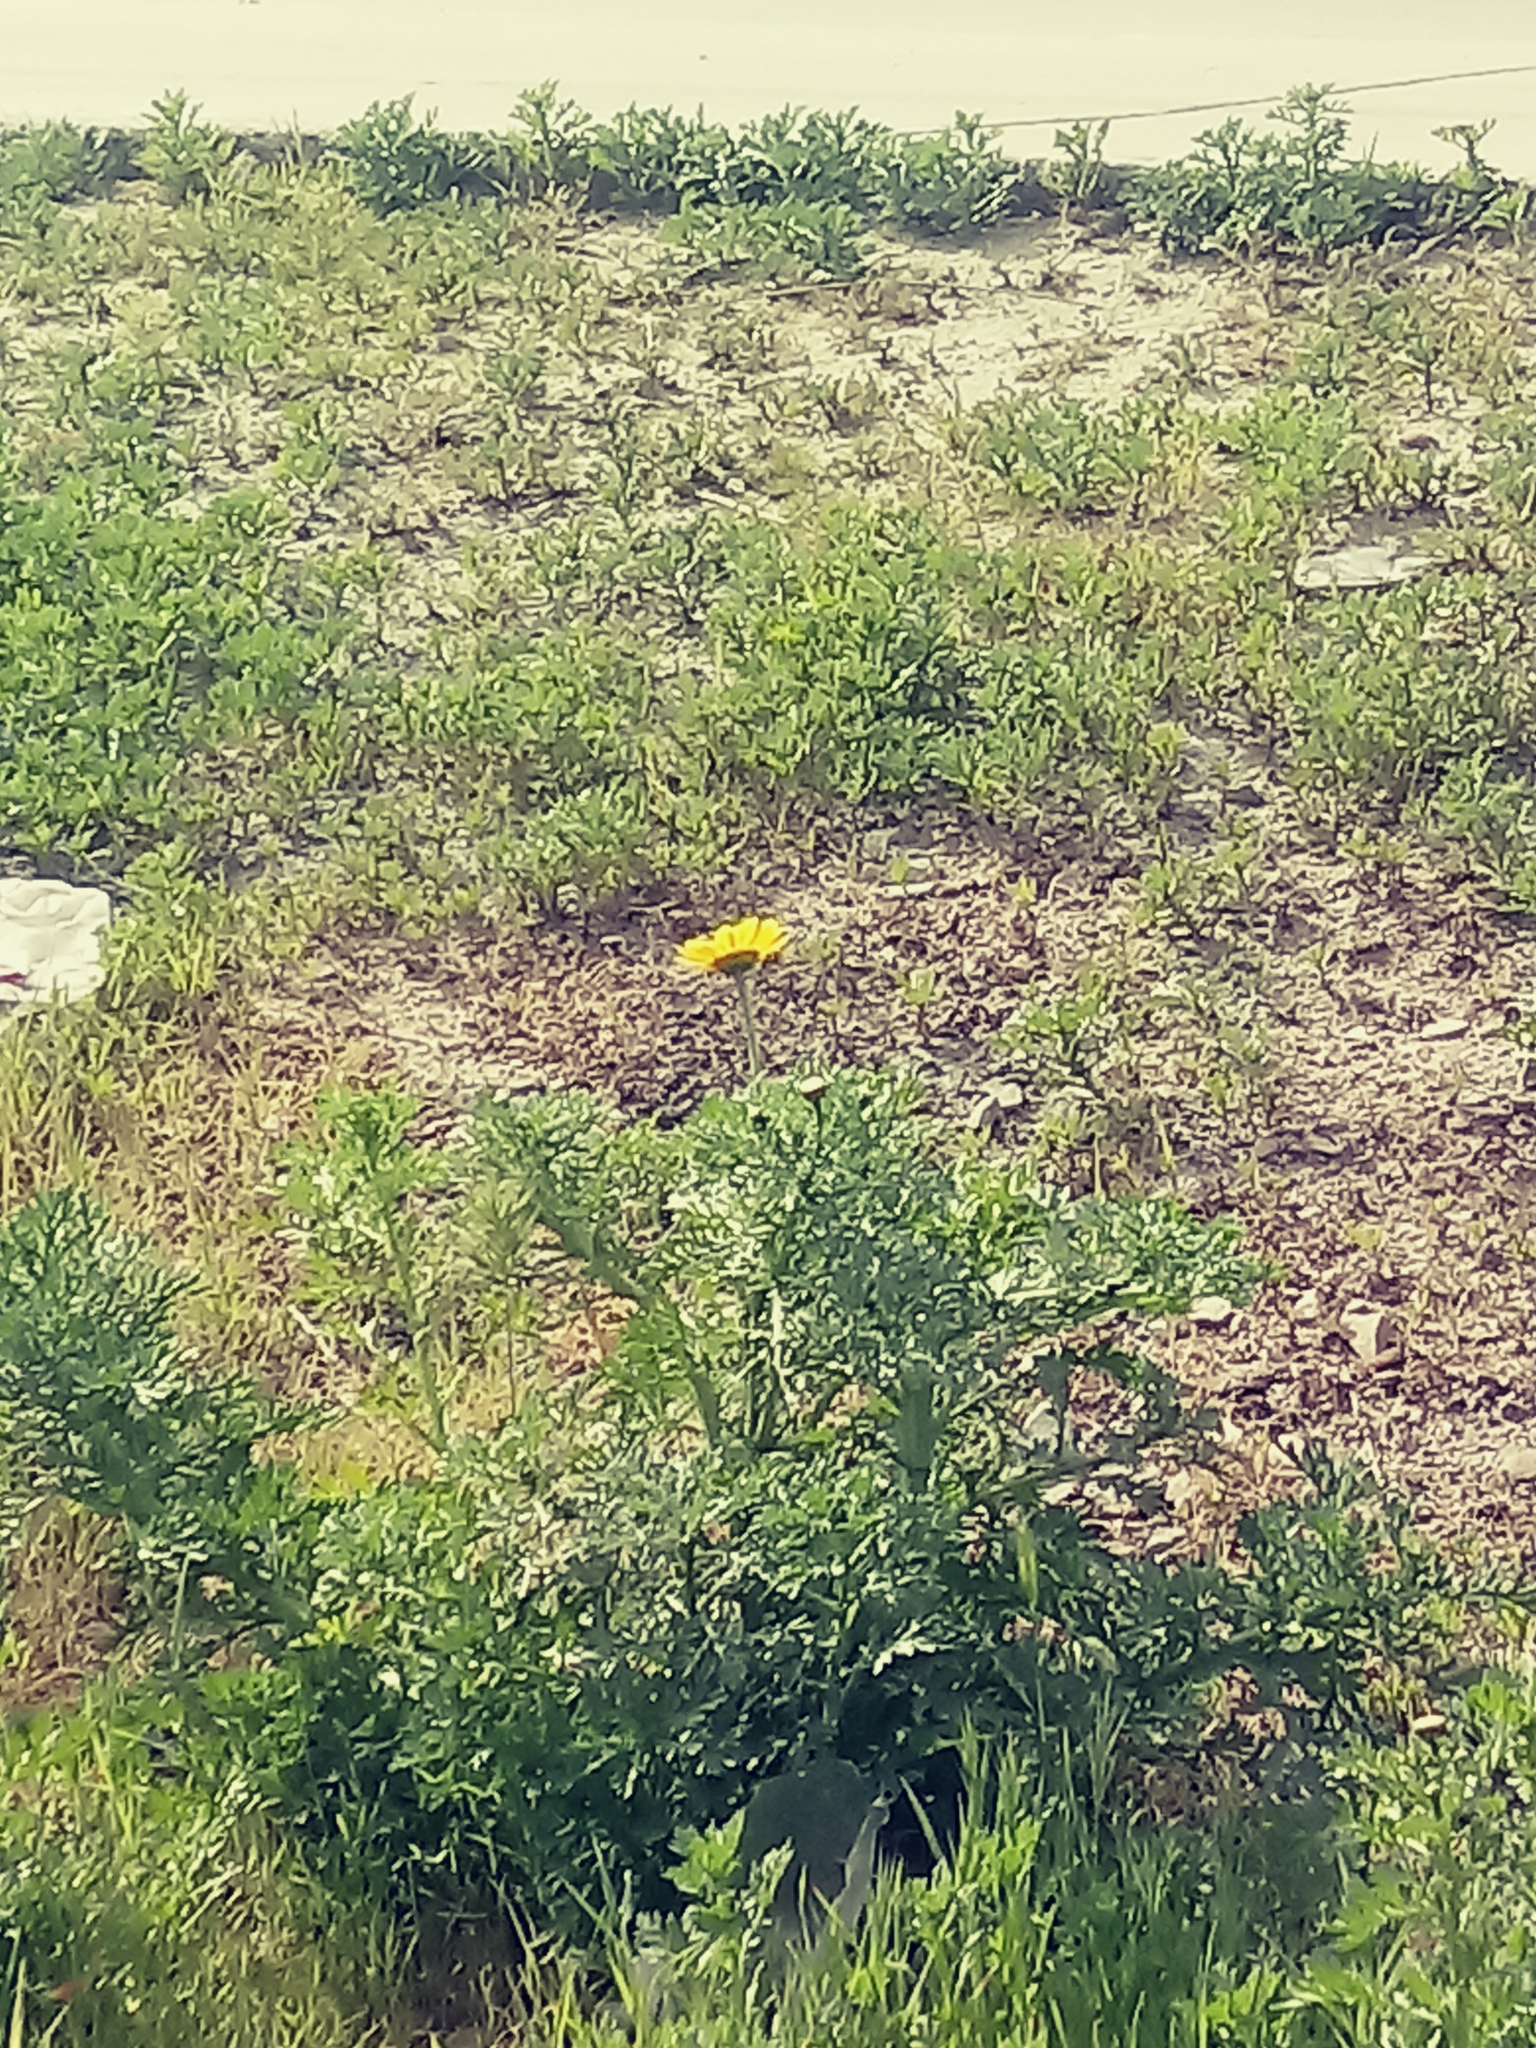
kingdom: Plantae
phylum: Tracheophyta
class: Magnoliopsida
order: Asterales
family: Asteraceae
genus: Glebionis
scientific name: Glebionis coronaria
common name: Crowndaisy
